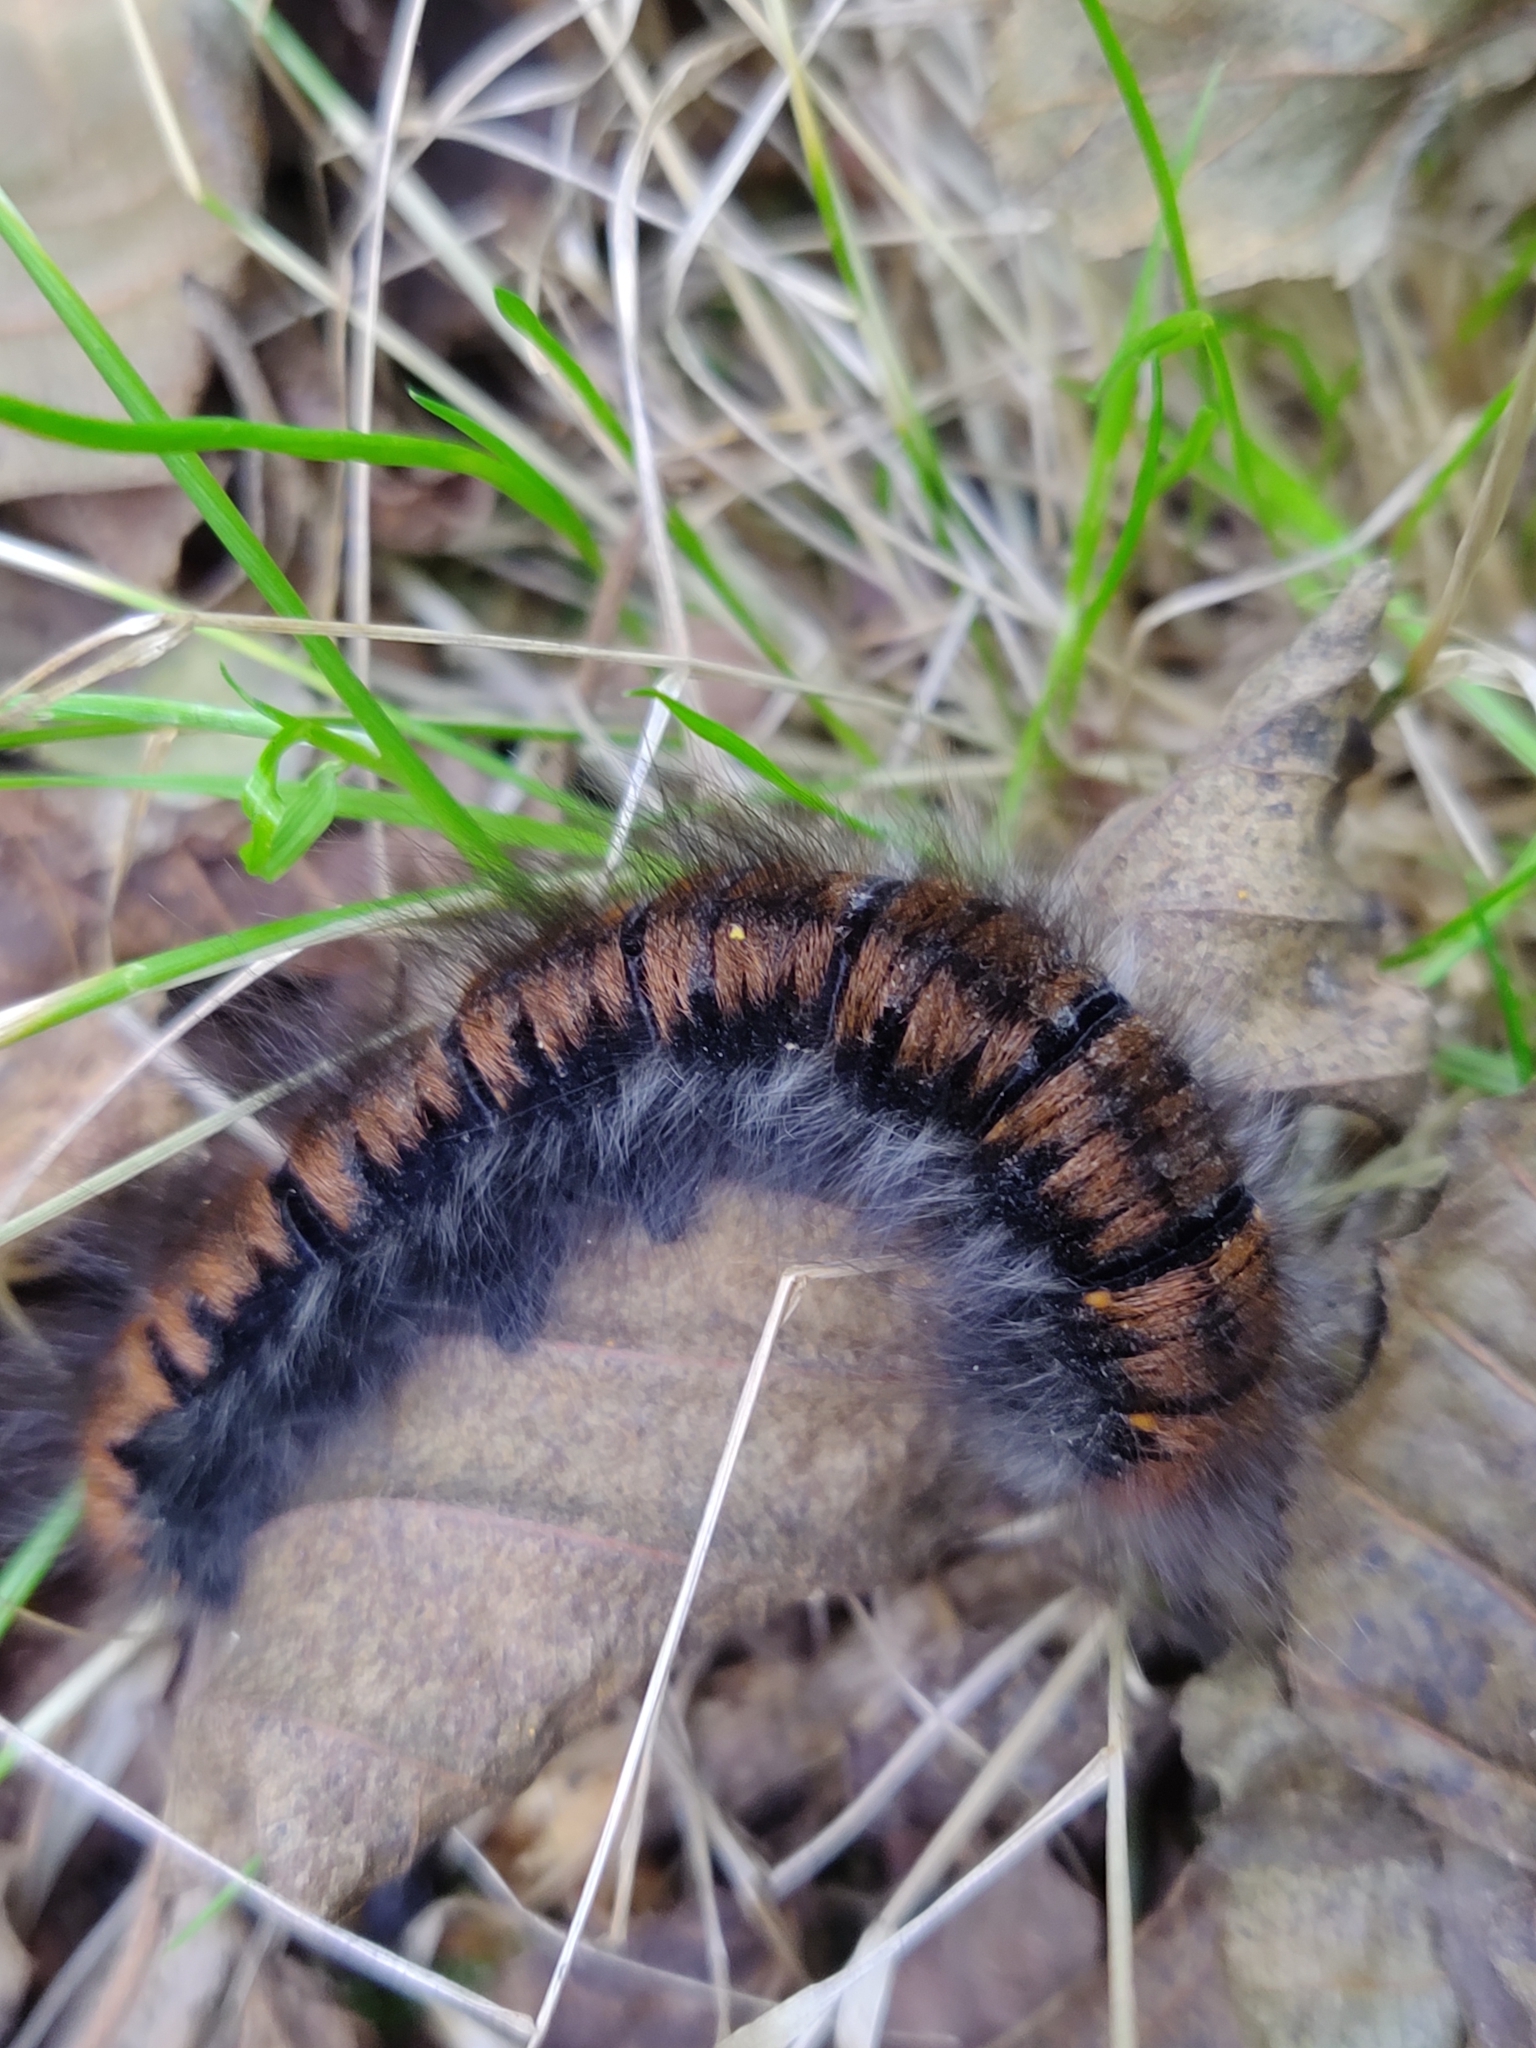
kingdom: Animalia
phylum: Arthropoda
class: Insecta
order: Lepidoptera
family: Lasiocampidae
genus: Macrothylacia
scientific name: Macrothylacia rubi
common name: Fox moth
